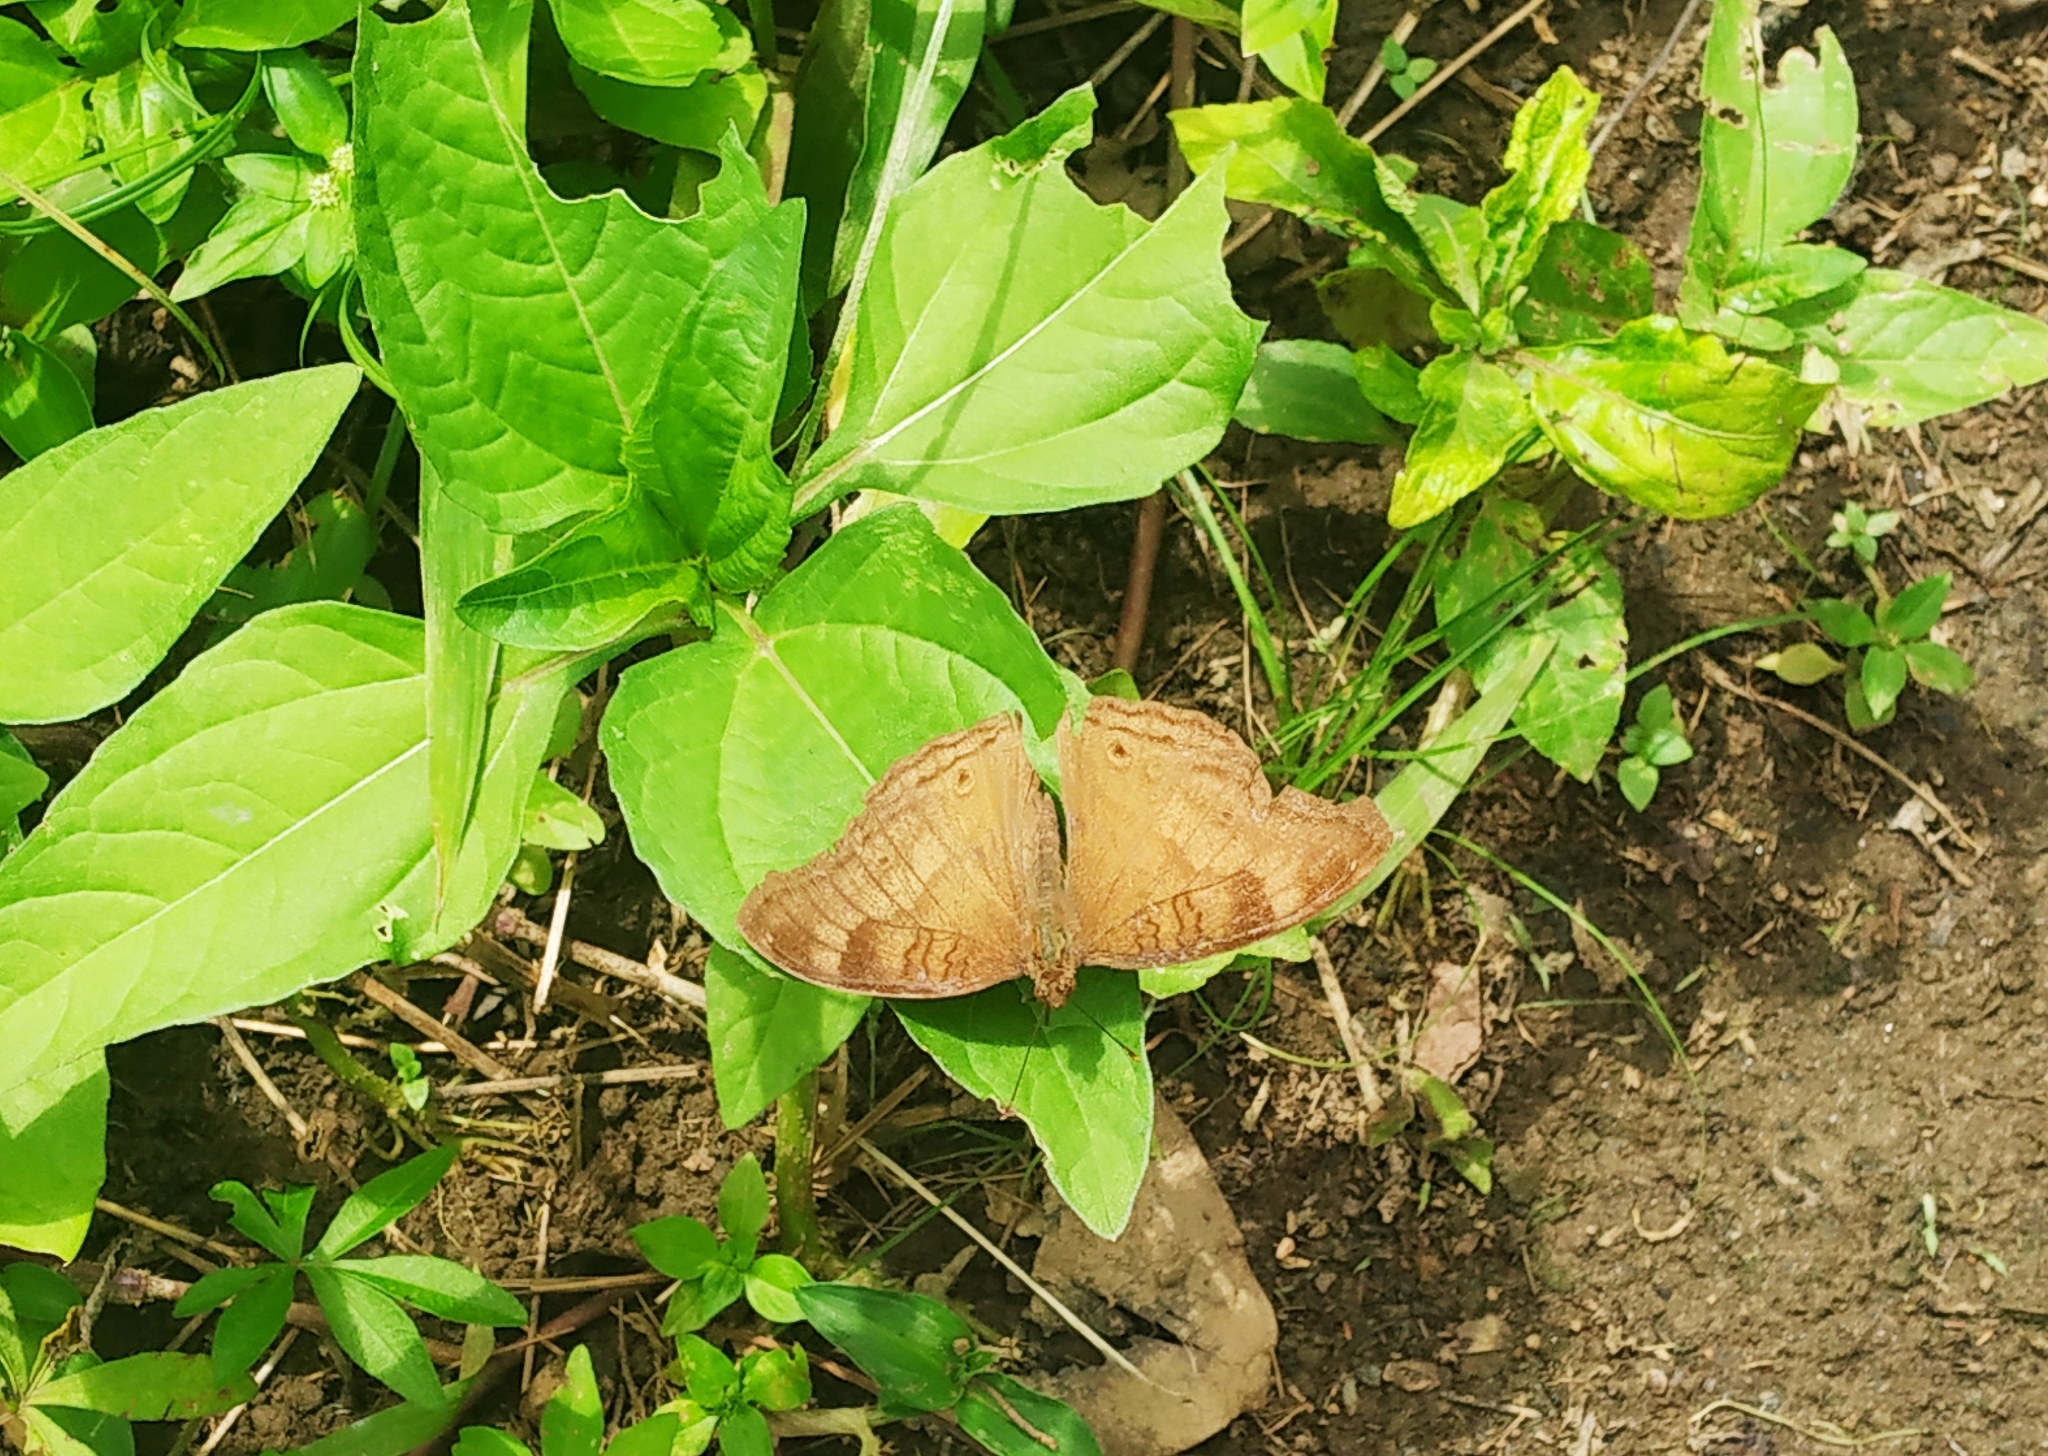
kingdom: Animalia
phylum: Arthropoda
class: Insecta
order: Lepidoptera
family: Nymphalidae
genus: Junonia
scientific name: Junonia iphita
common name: Chocolate pansy
